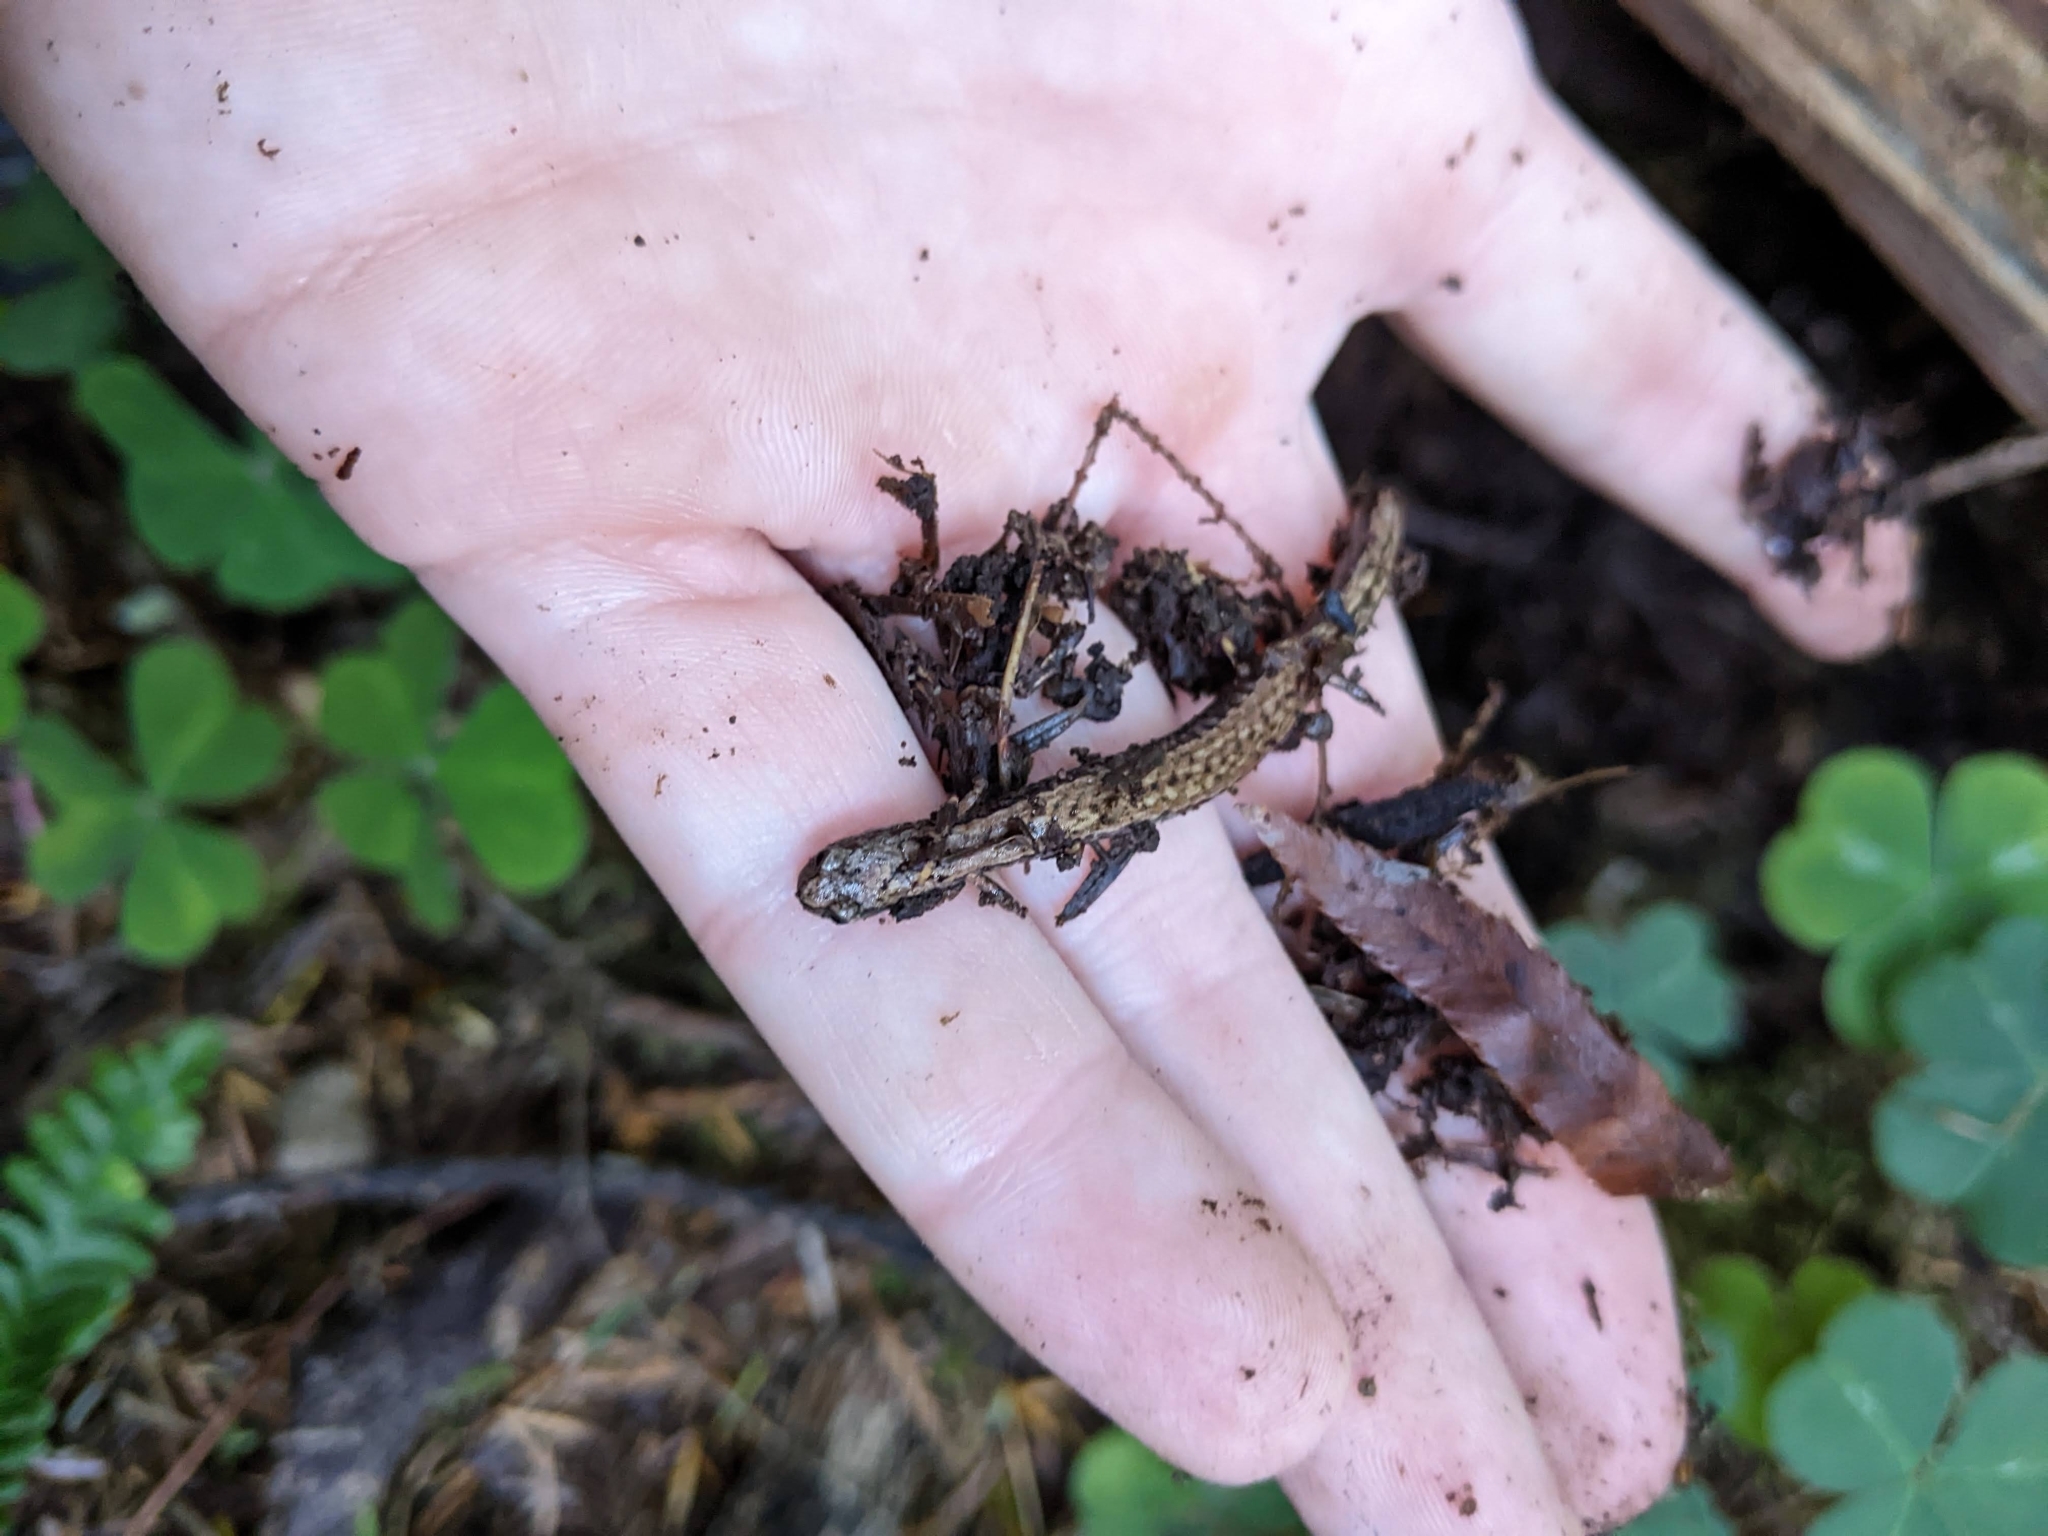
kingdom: Animalia
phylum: Chordata
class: Amphibia
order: Caudata
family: Plethodontidae
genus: Batrachoseps
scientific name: Batrachoseps attenuatus
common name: California slender salamander
